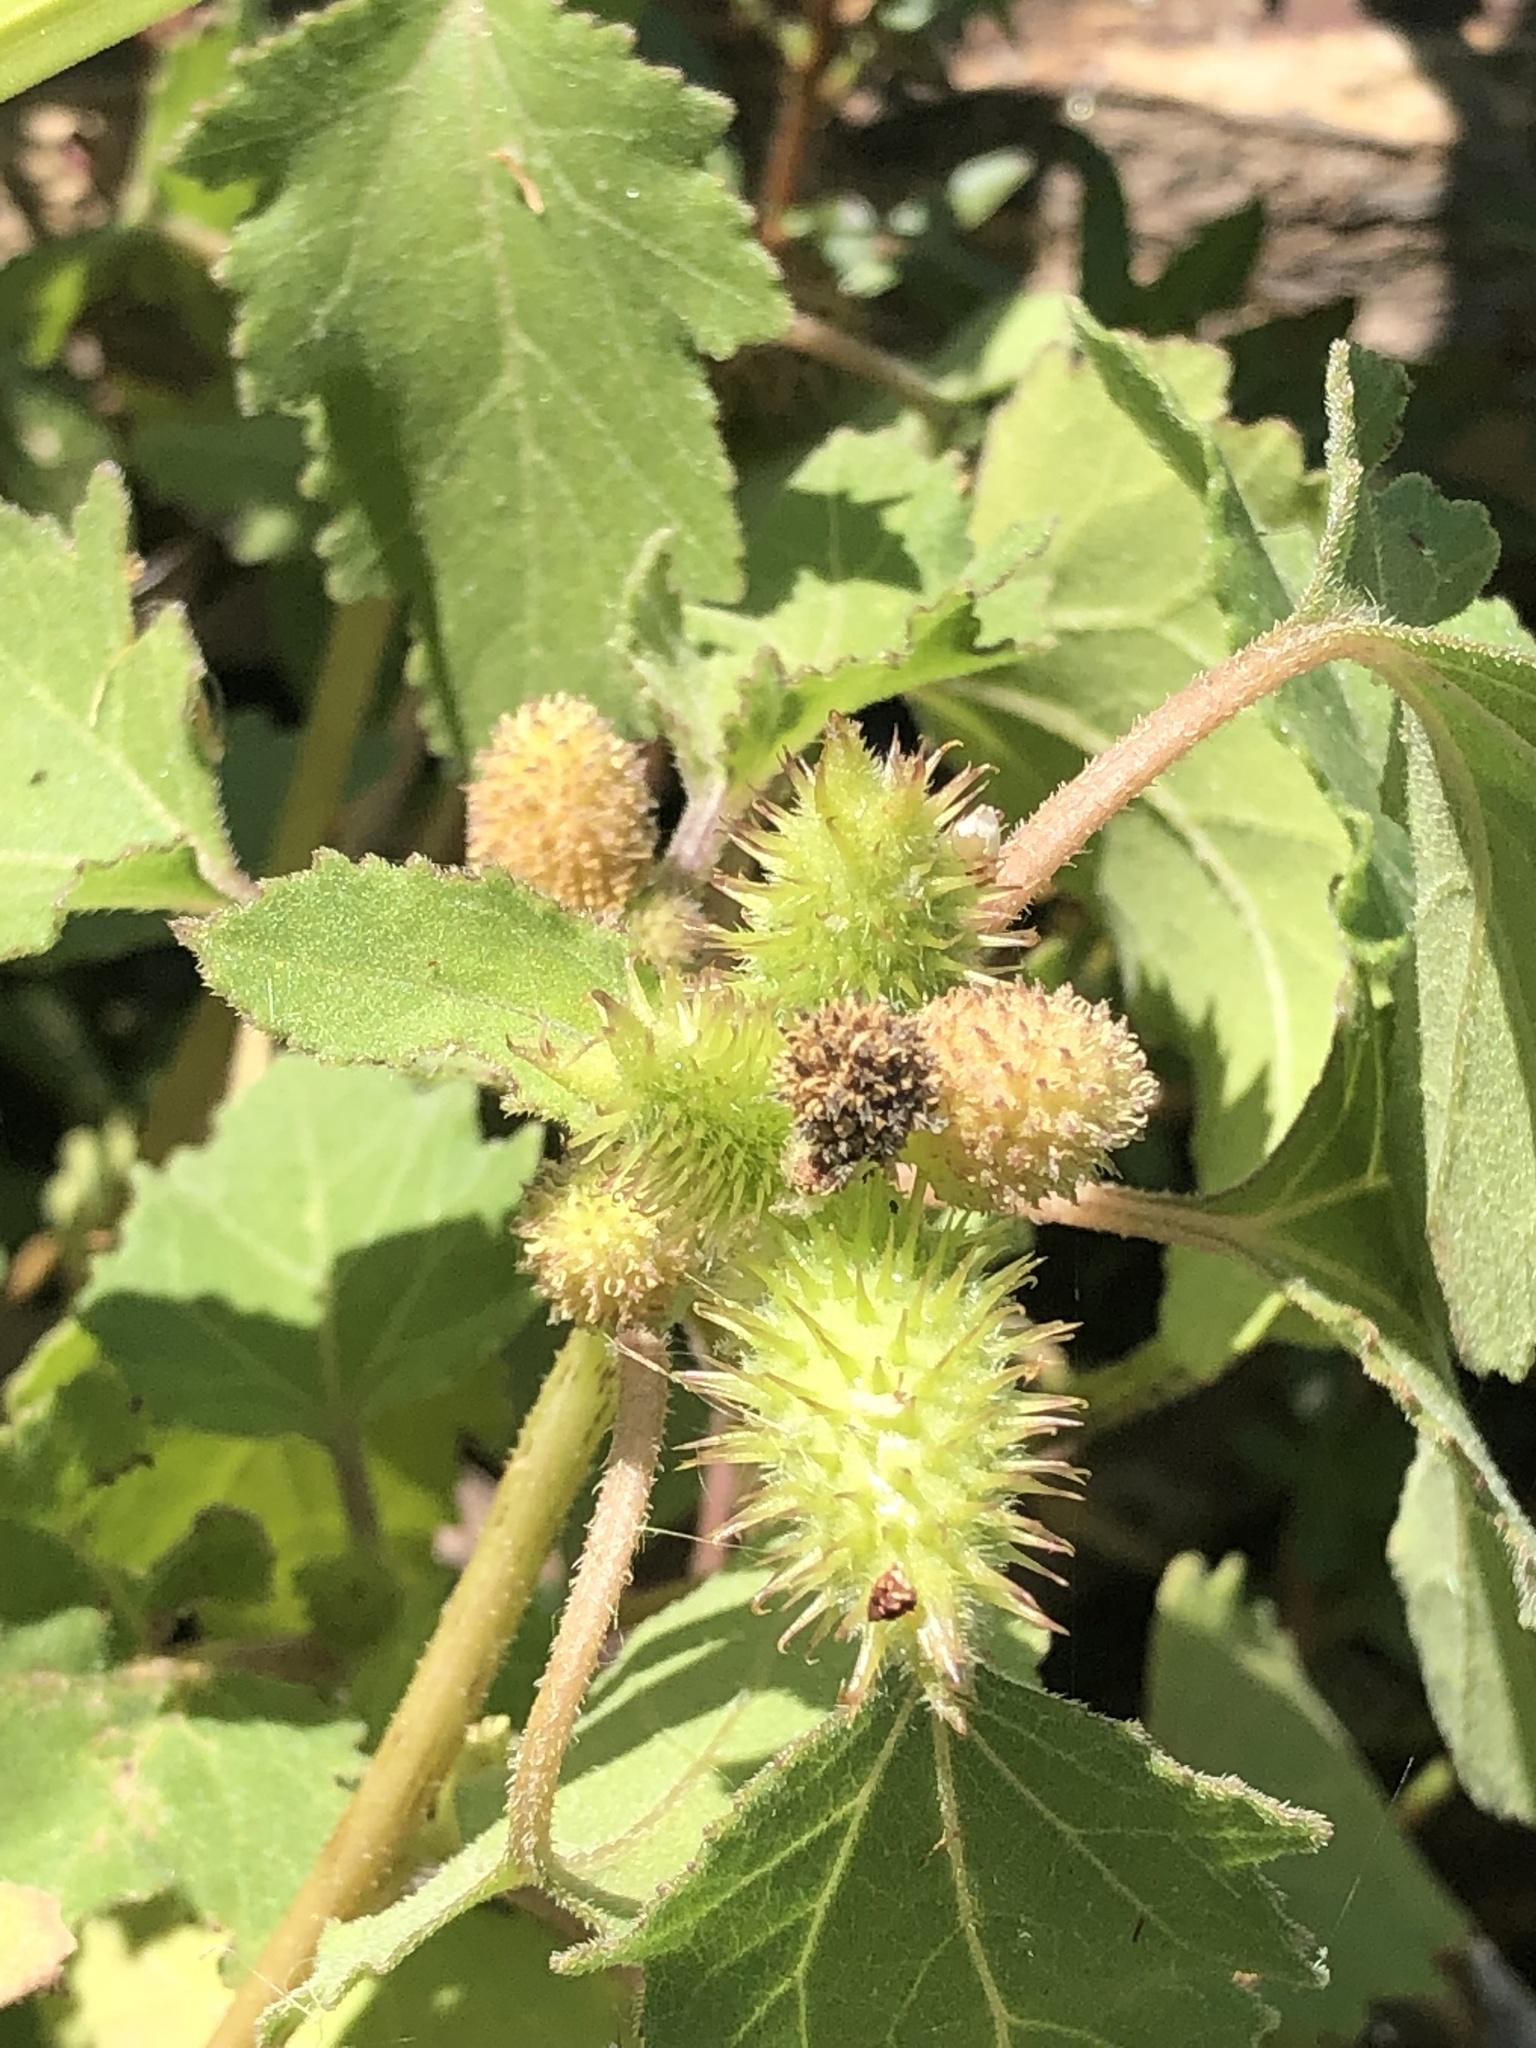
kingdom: Plantae
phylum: Tracheophyta
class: Magnoliopsida
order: Asterales
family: Asteraceae
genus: Xanthium
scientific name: Xanthium strumarium
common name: Rough cocklebur
